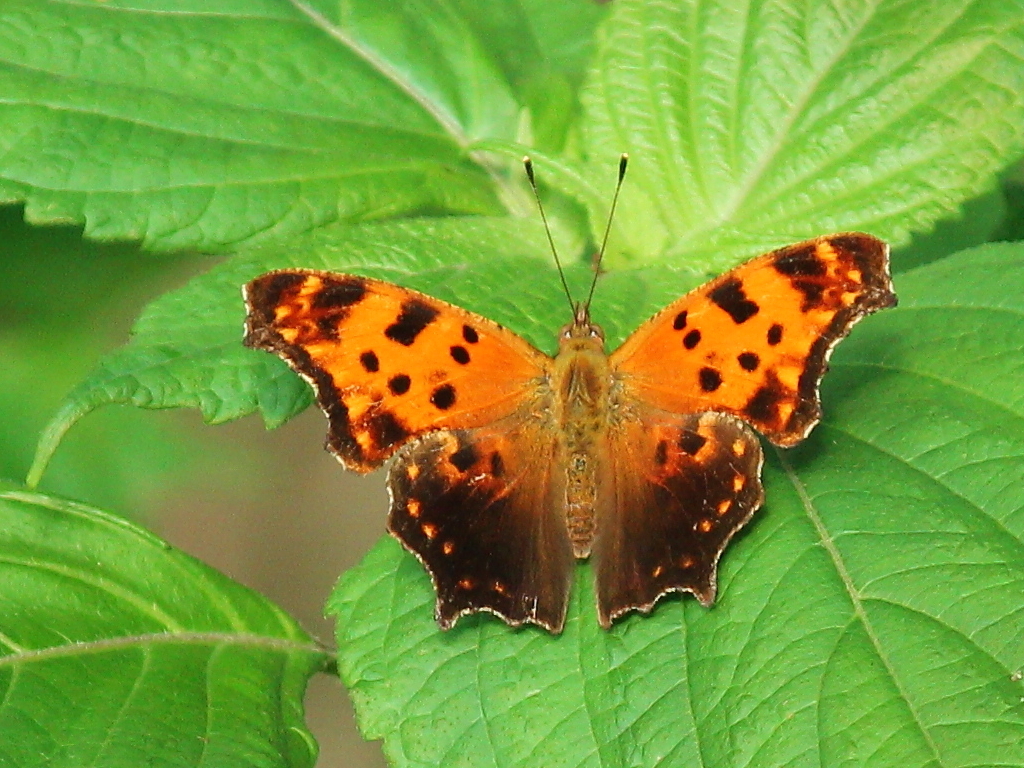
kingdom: Animalia
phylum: Arthropoda
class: Insecta
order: Lepidoptera
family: Nymphalidae
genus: Polygonia
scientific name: Polygonia comma
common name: Eastern comma
